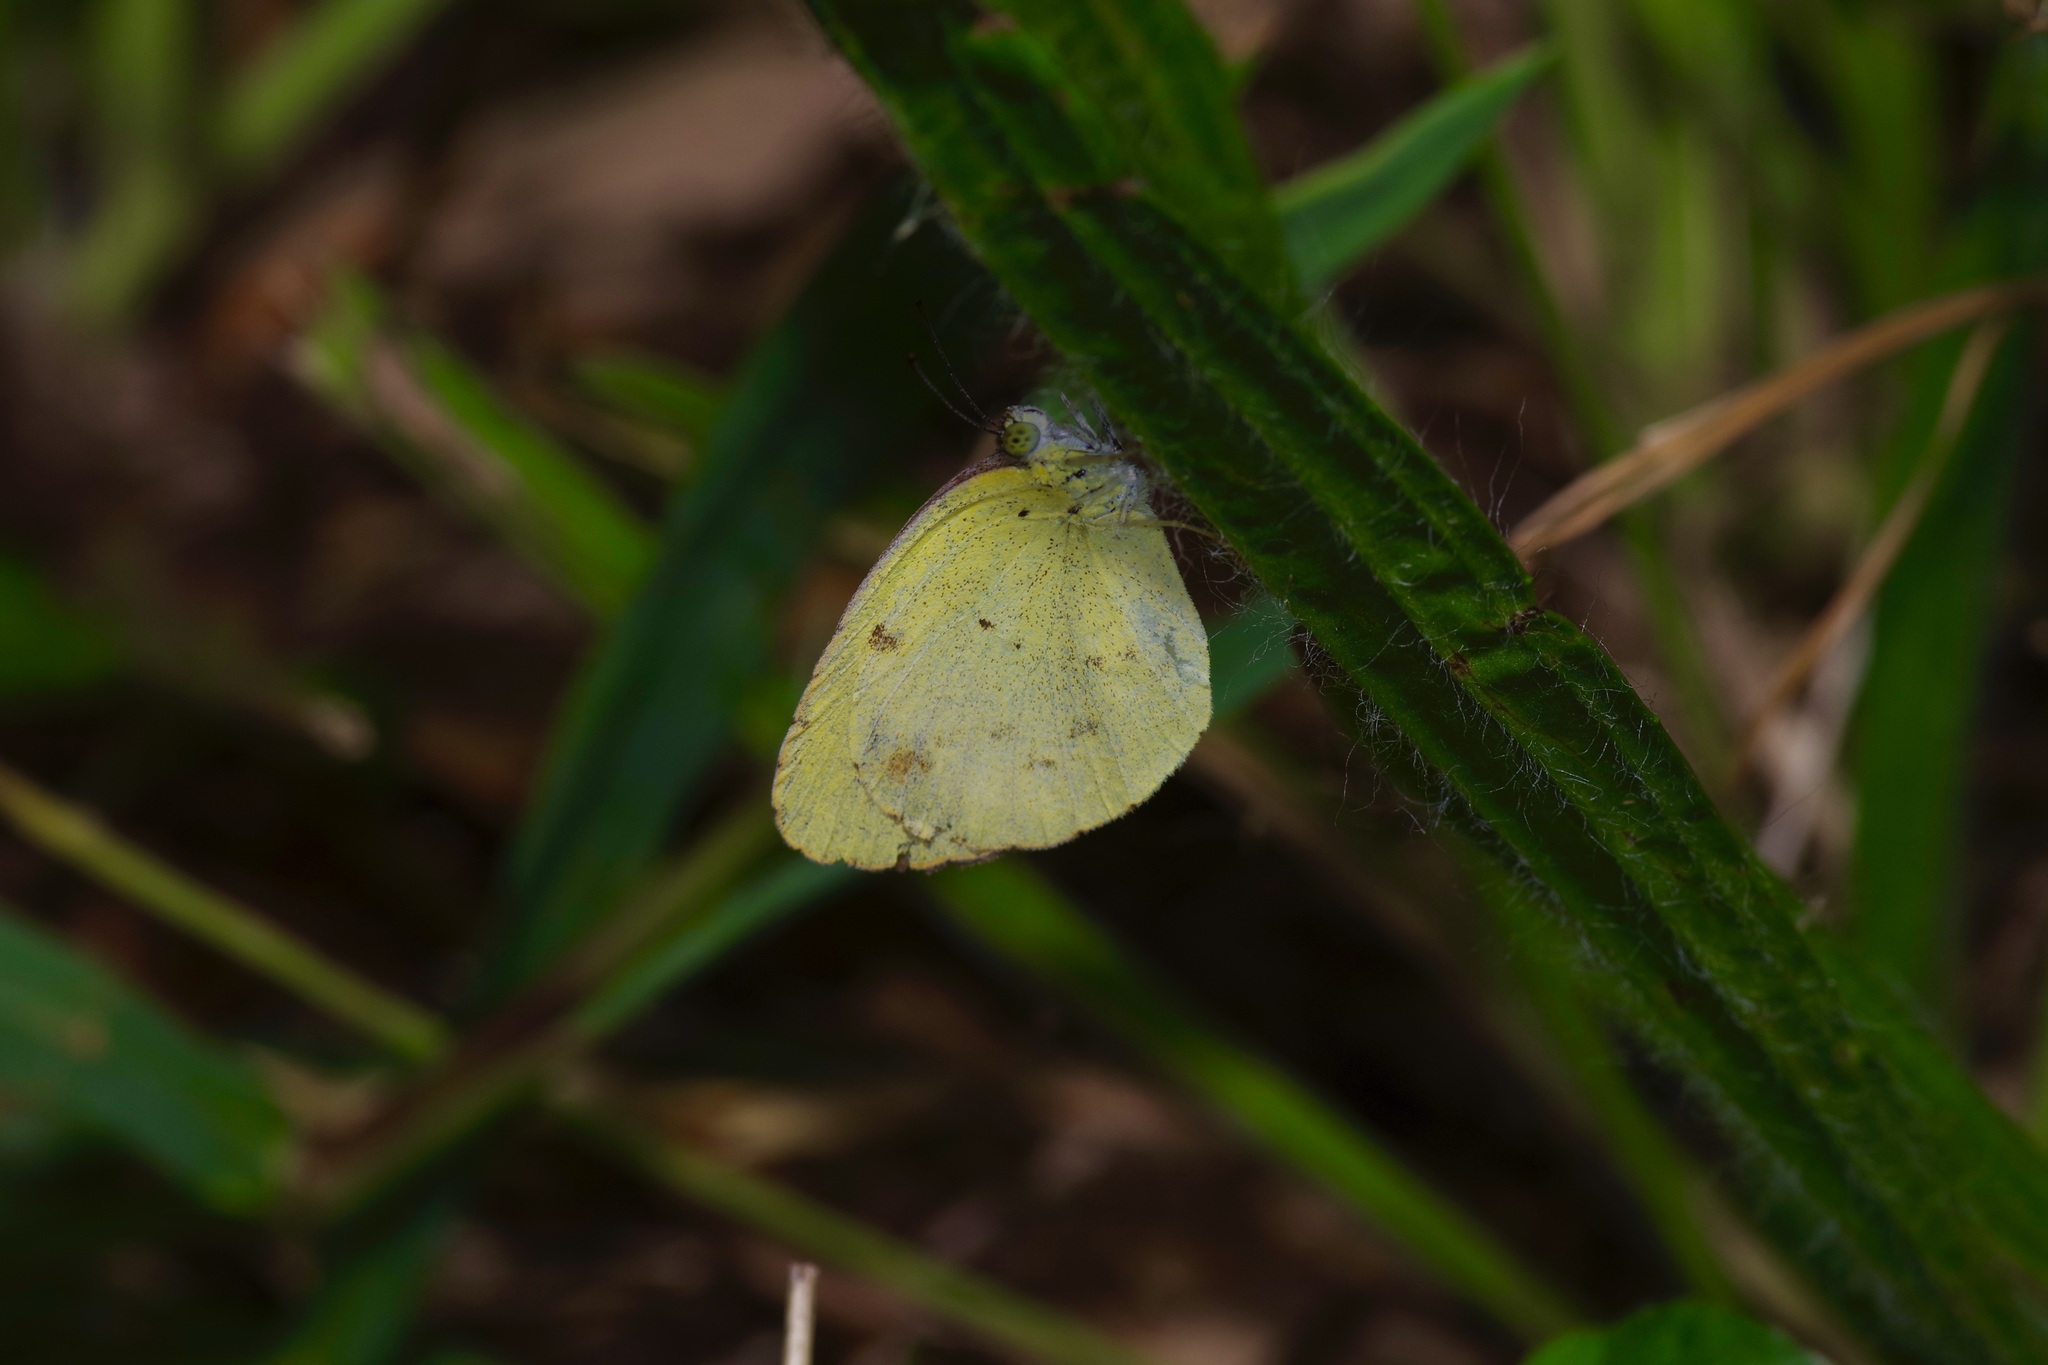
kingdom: Animalia
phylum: Arthropoda
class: Insecta
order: Lepidoptera
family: Pieridae
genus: Pyrisitia
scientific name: Pyrisitia lisa
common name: Little yellow
